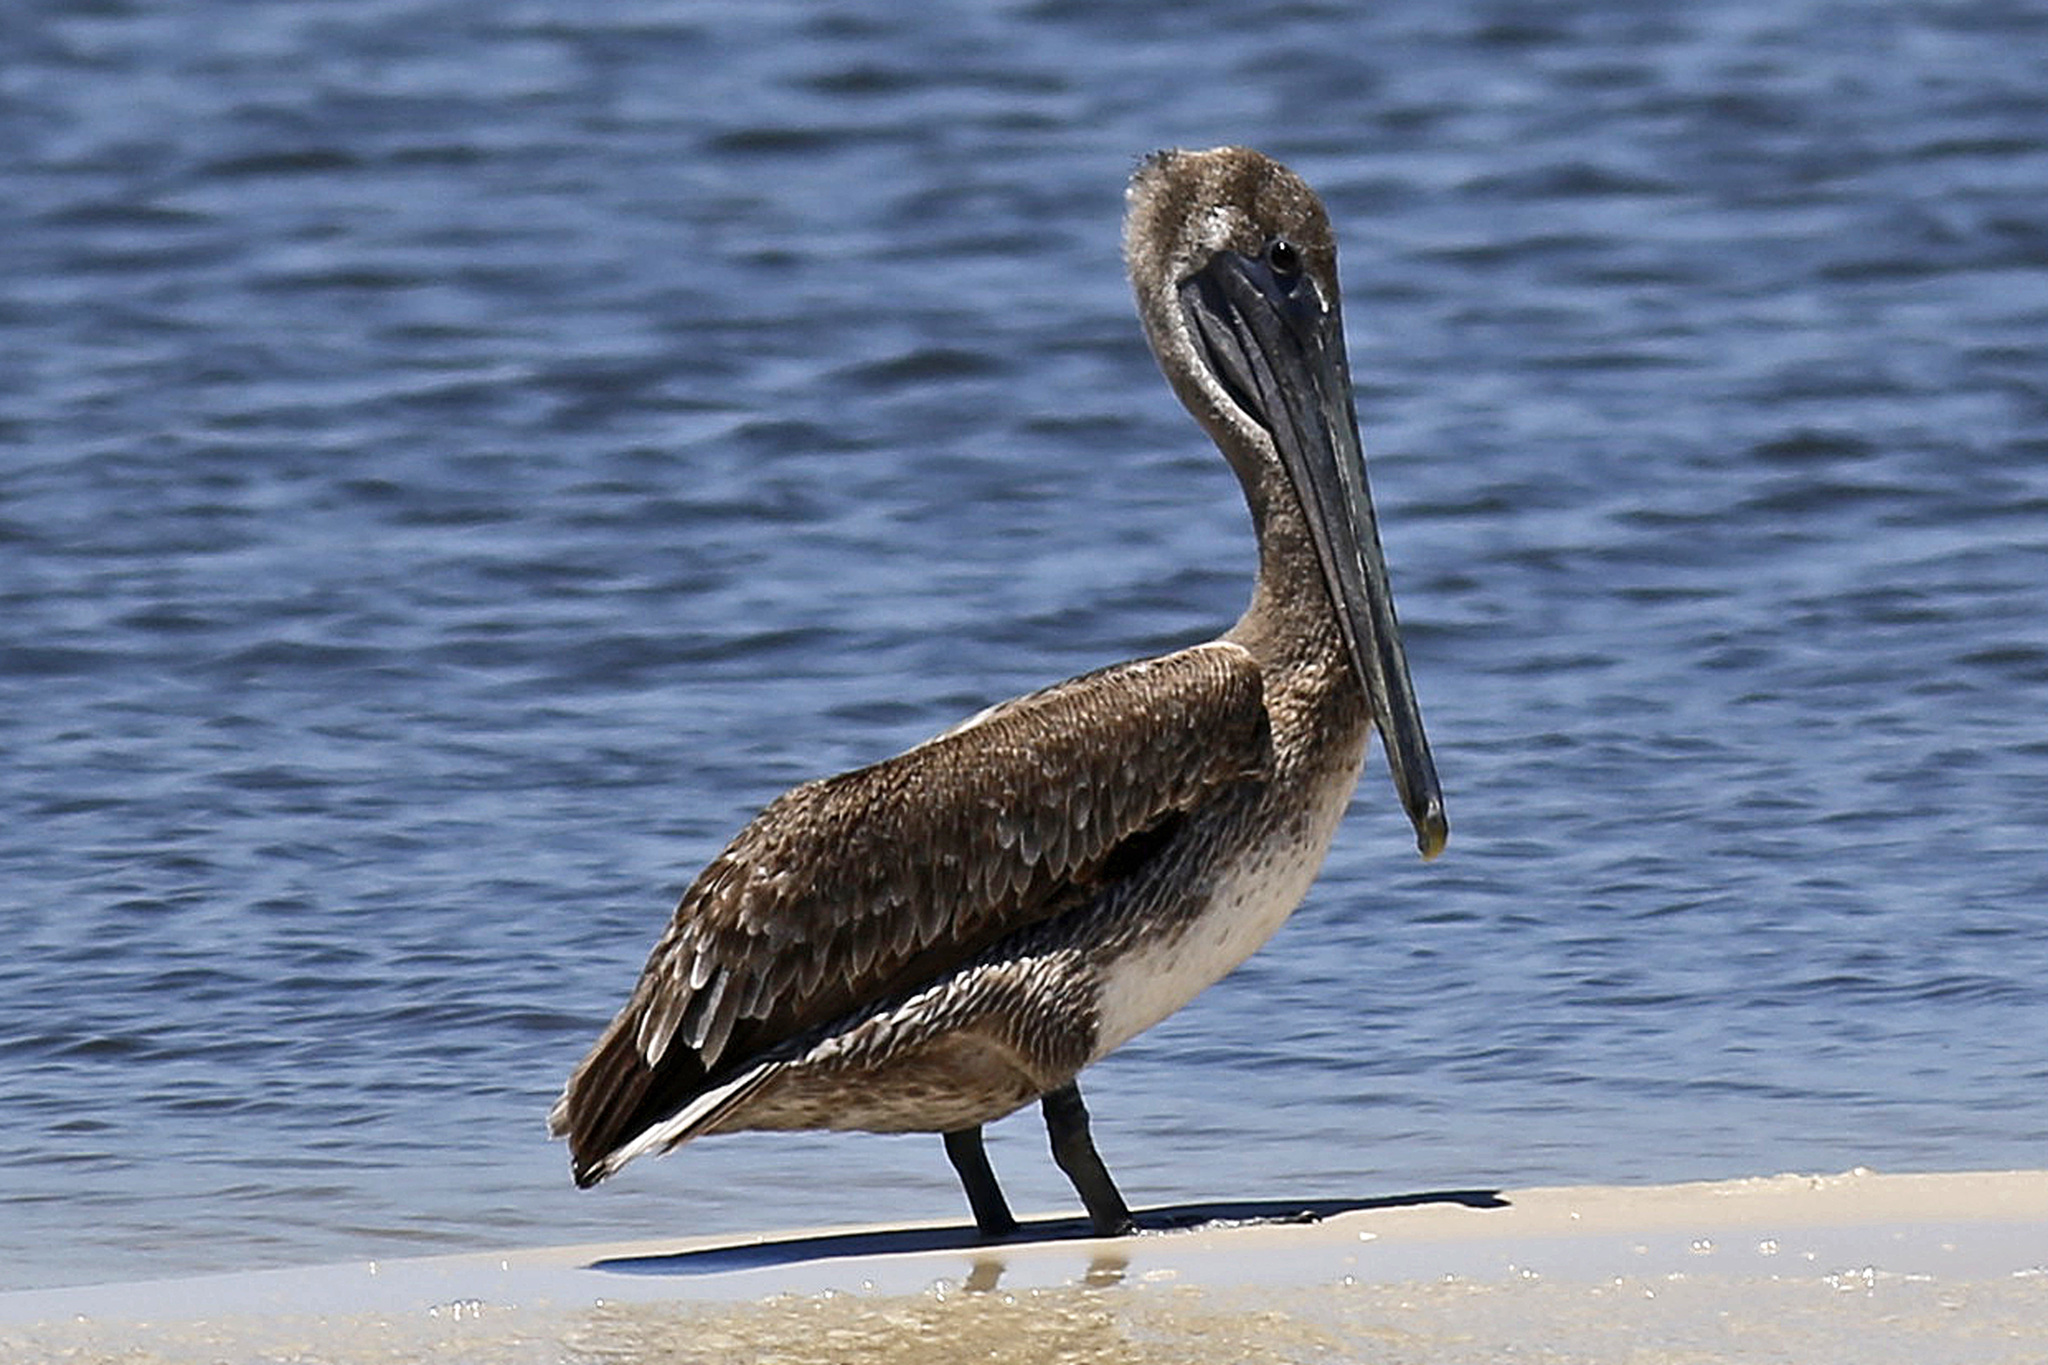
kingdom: Animalia
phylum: Chordata
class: Aves
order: Pelecaniformes
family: Pelecanidae
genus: Pelecanus
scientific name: Pelecanus occidentalis
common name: Brown pelican
